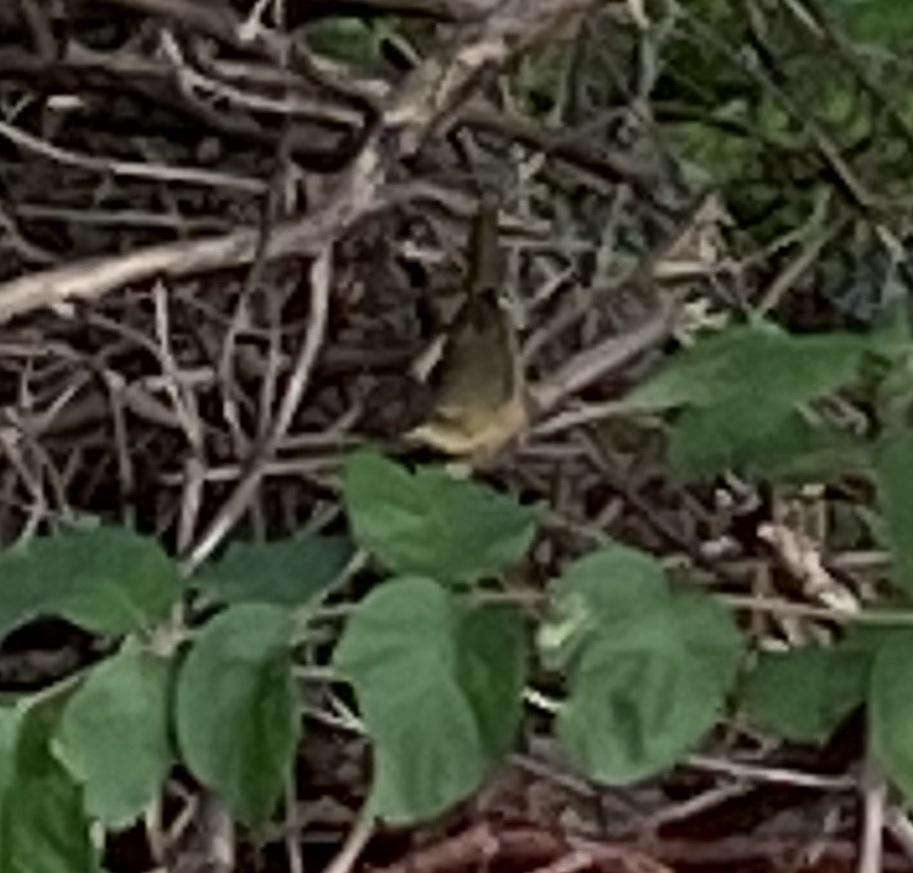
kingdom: Animalia
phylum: Chordata
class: Aves
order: Passeriformes
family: Parulidae
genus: Geothlypis
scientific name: Geothlypis trichas
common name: Common yellowthroat
